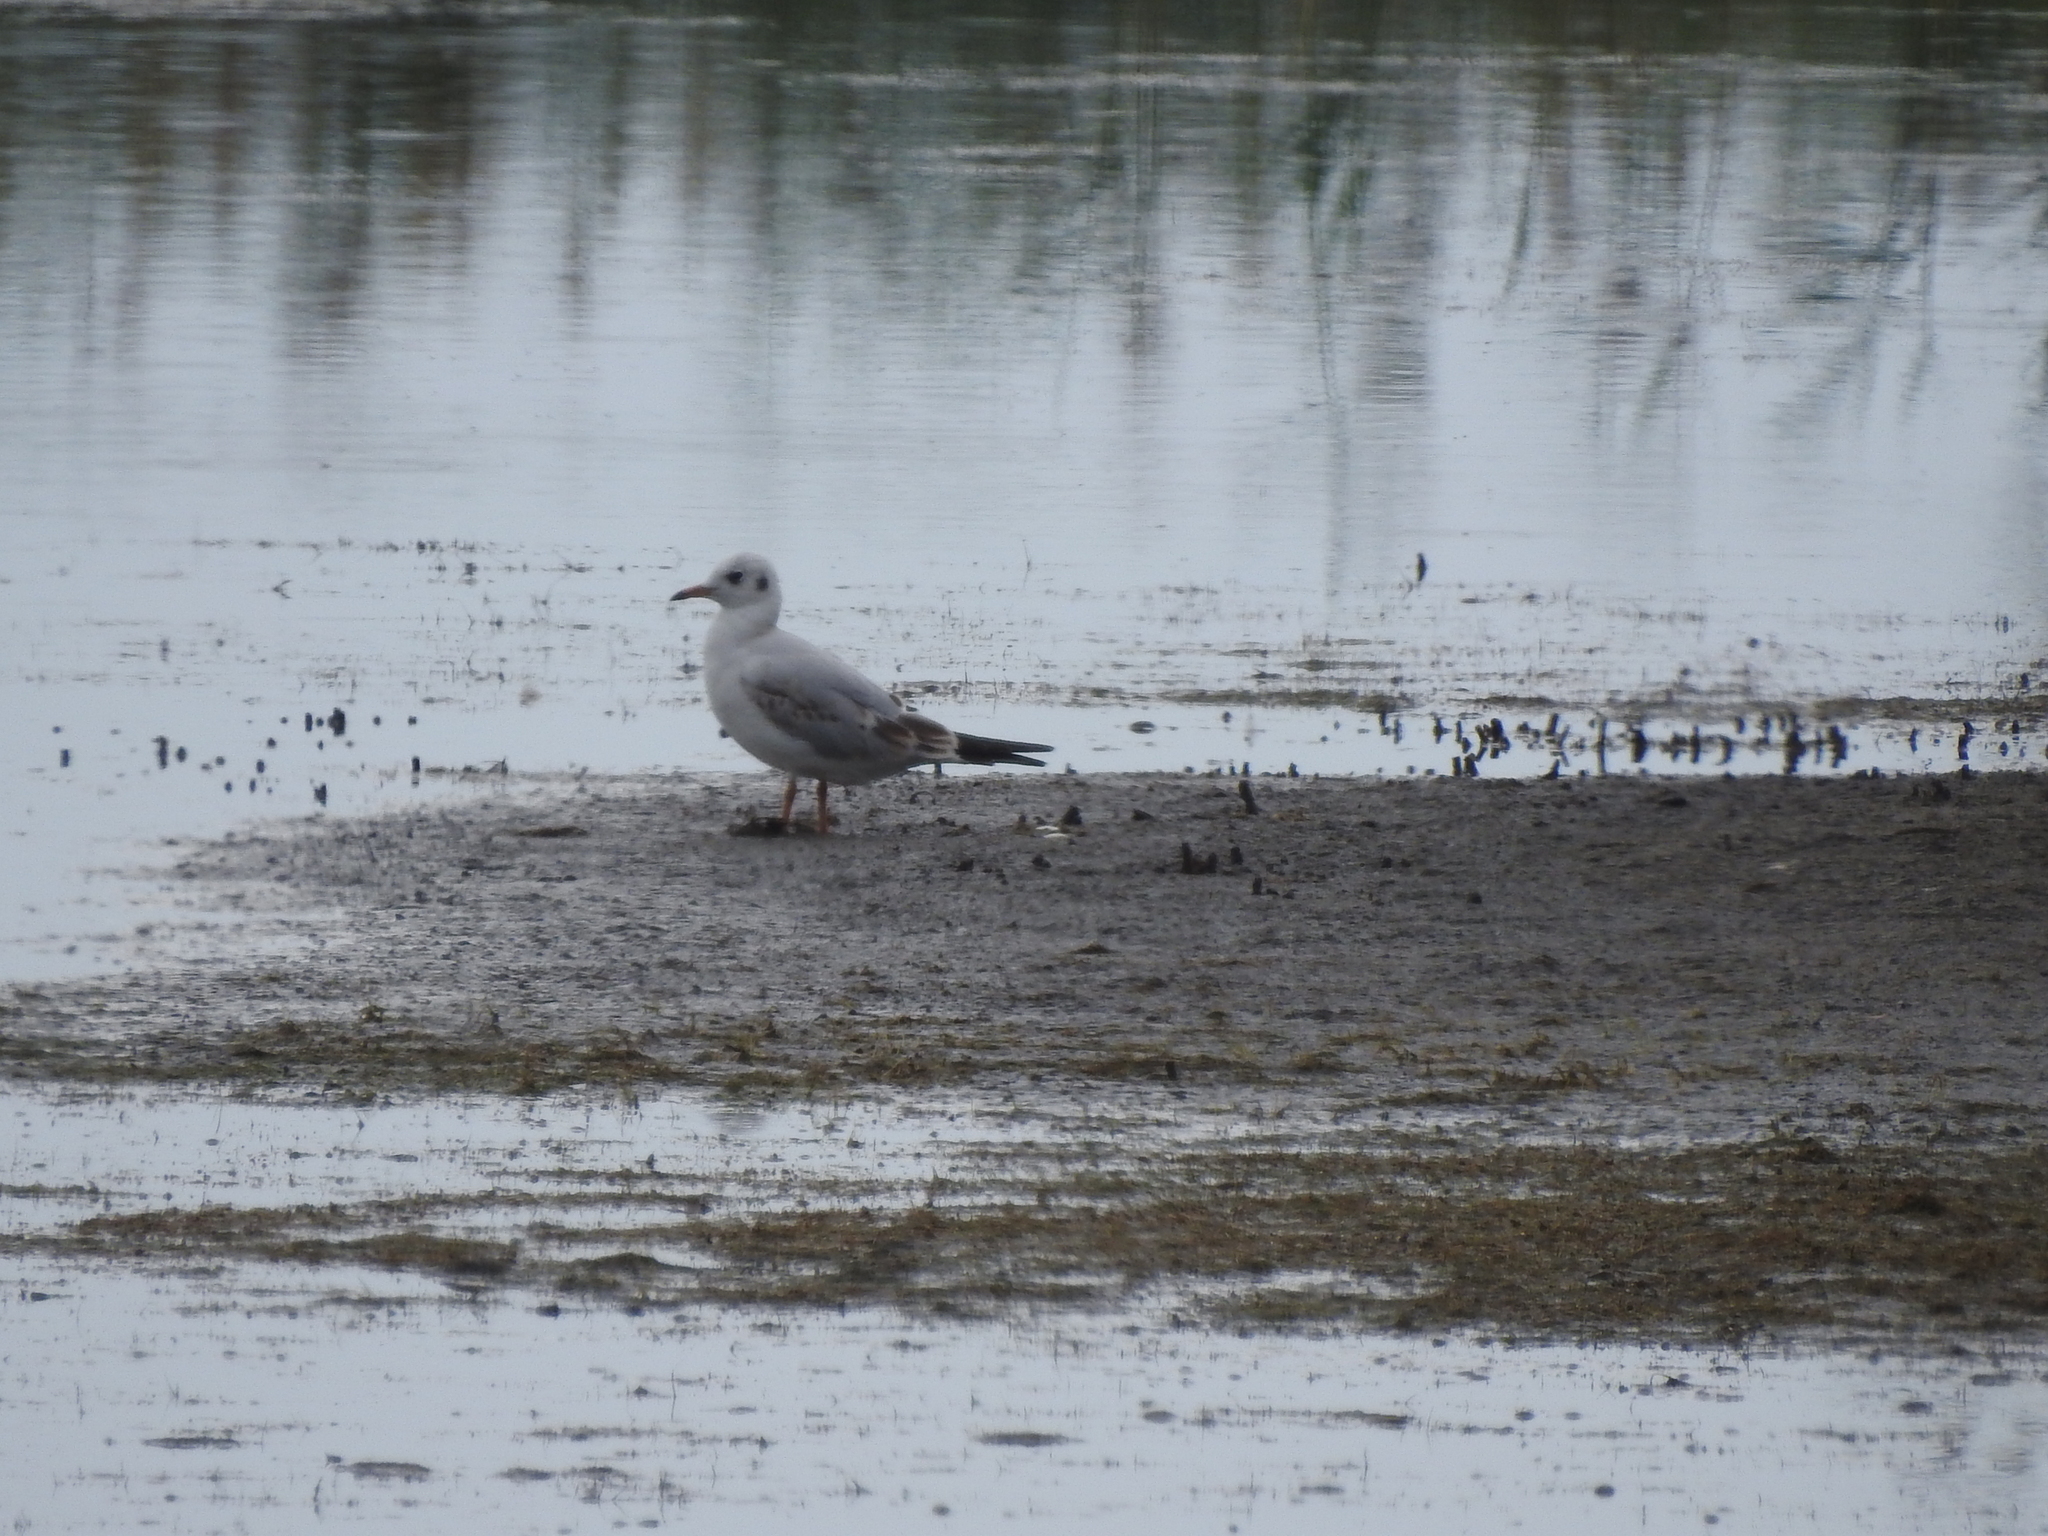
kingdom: Animalia
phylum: Chordata
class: Aves
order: Charadriiformes
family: Laridae
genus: Chroicocephalus
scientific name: Chroicocephalus ridibundus
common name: Black-headed gull
